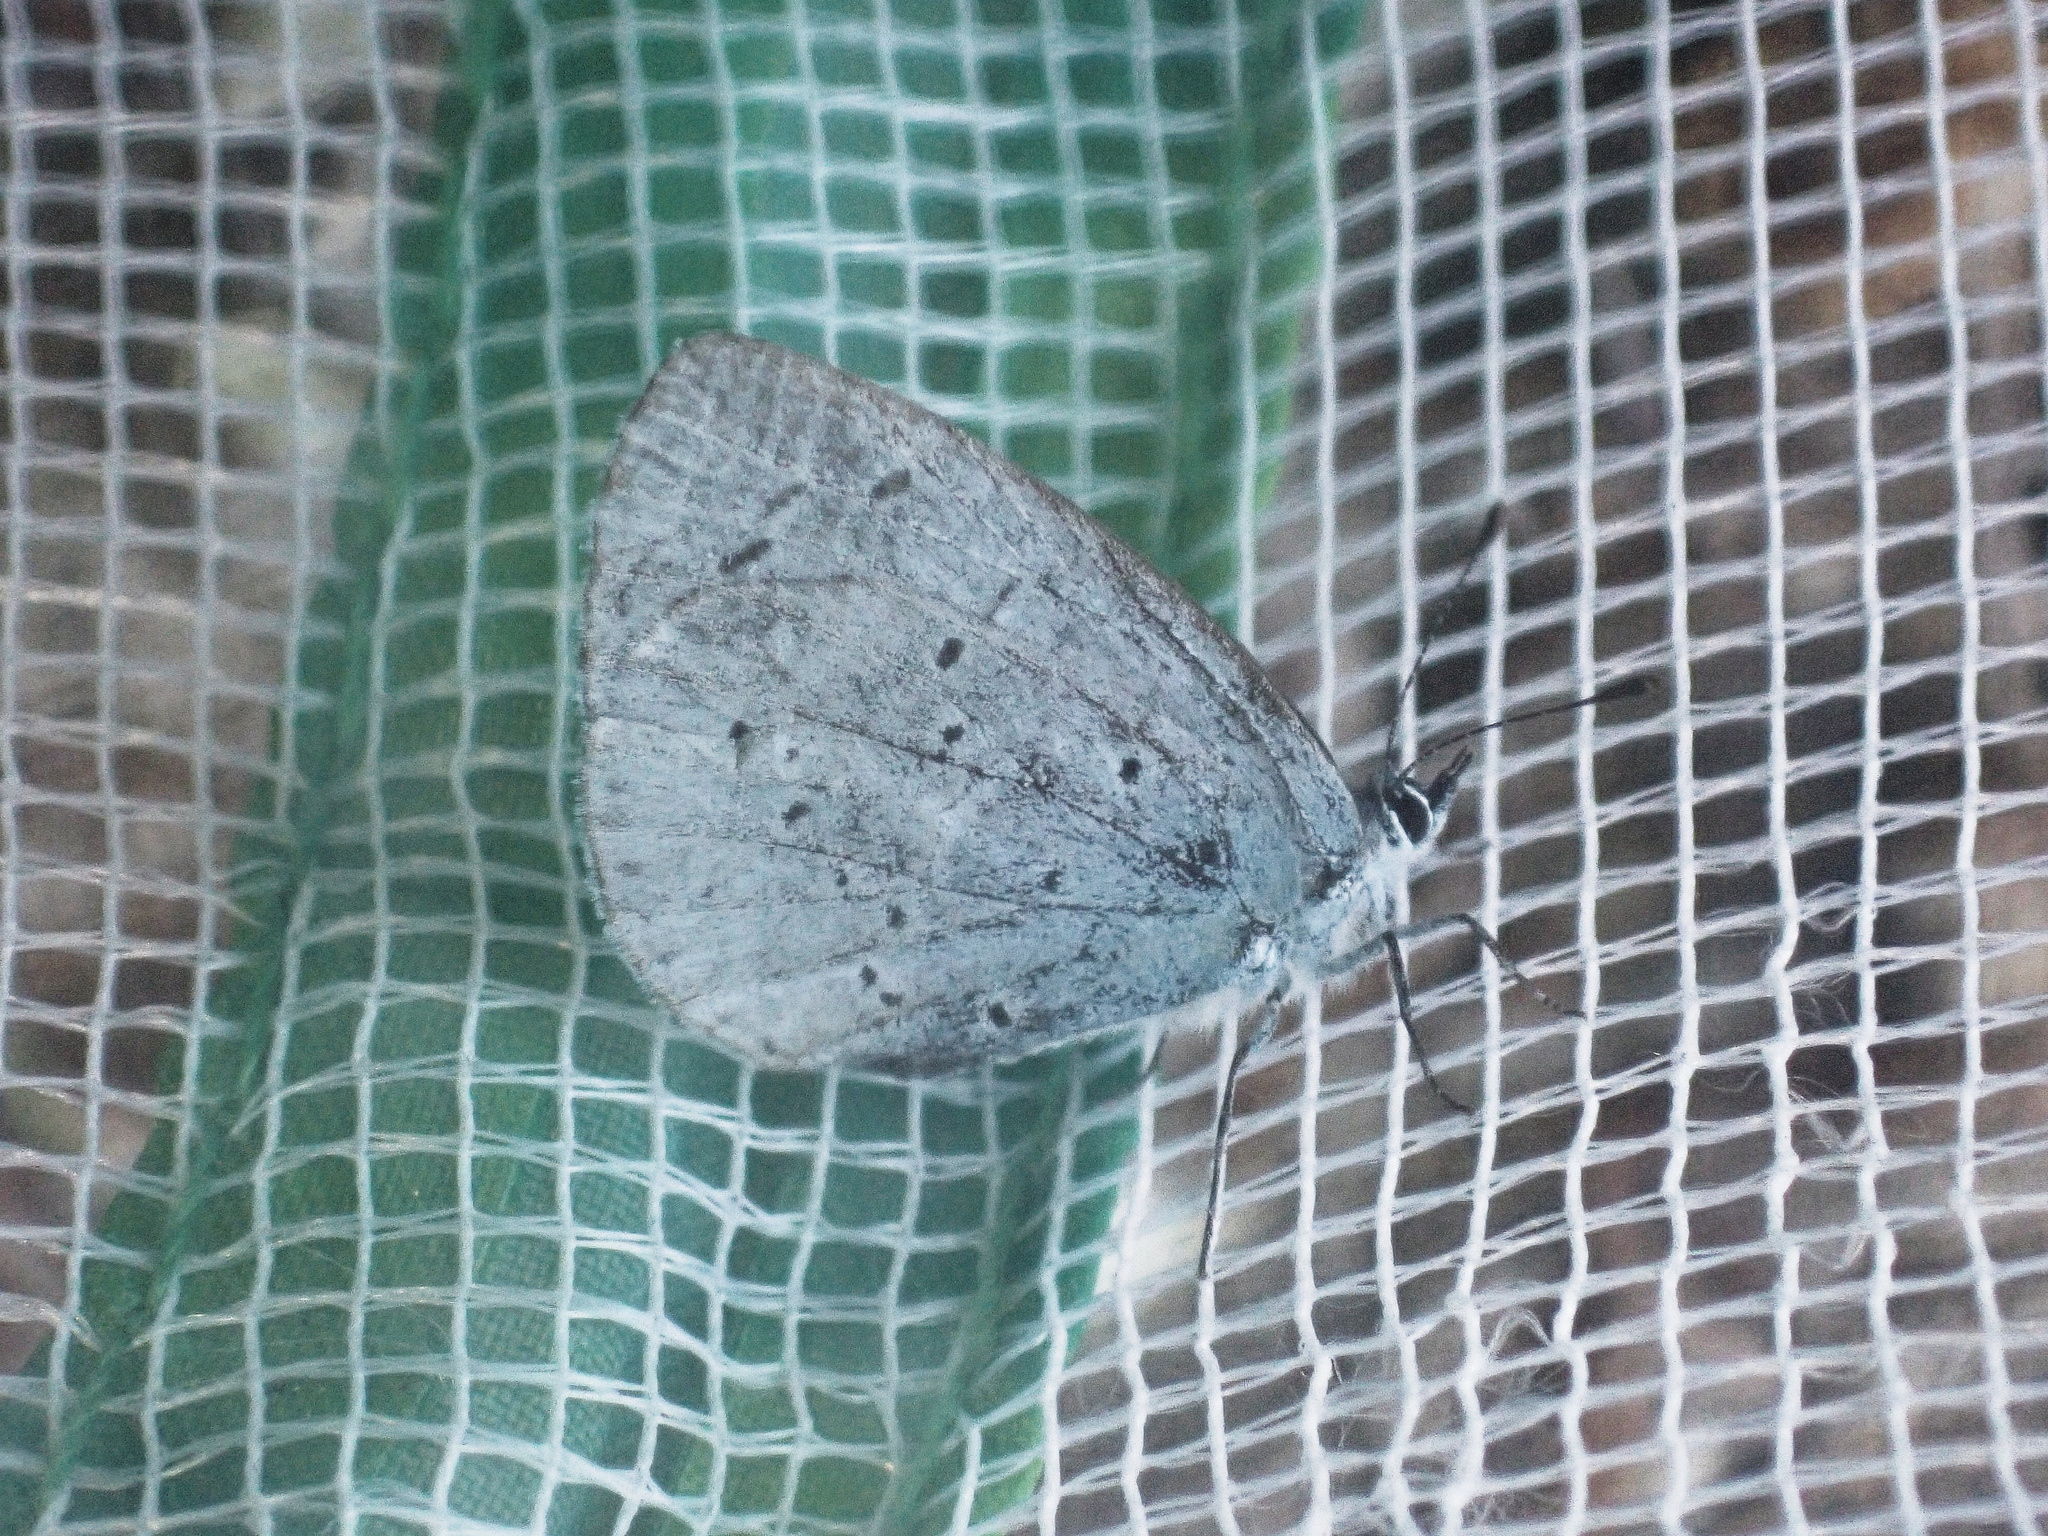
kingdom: Animalia
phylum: Arthropoda
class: Insecta
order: Lepidoptera
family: Lycaenidae
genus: Celastrina
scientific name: Celastrina argiolus
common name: Holly blue
